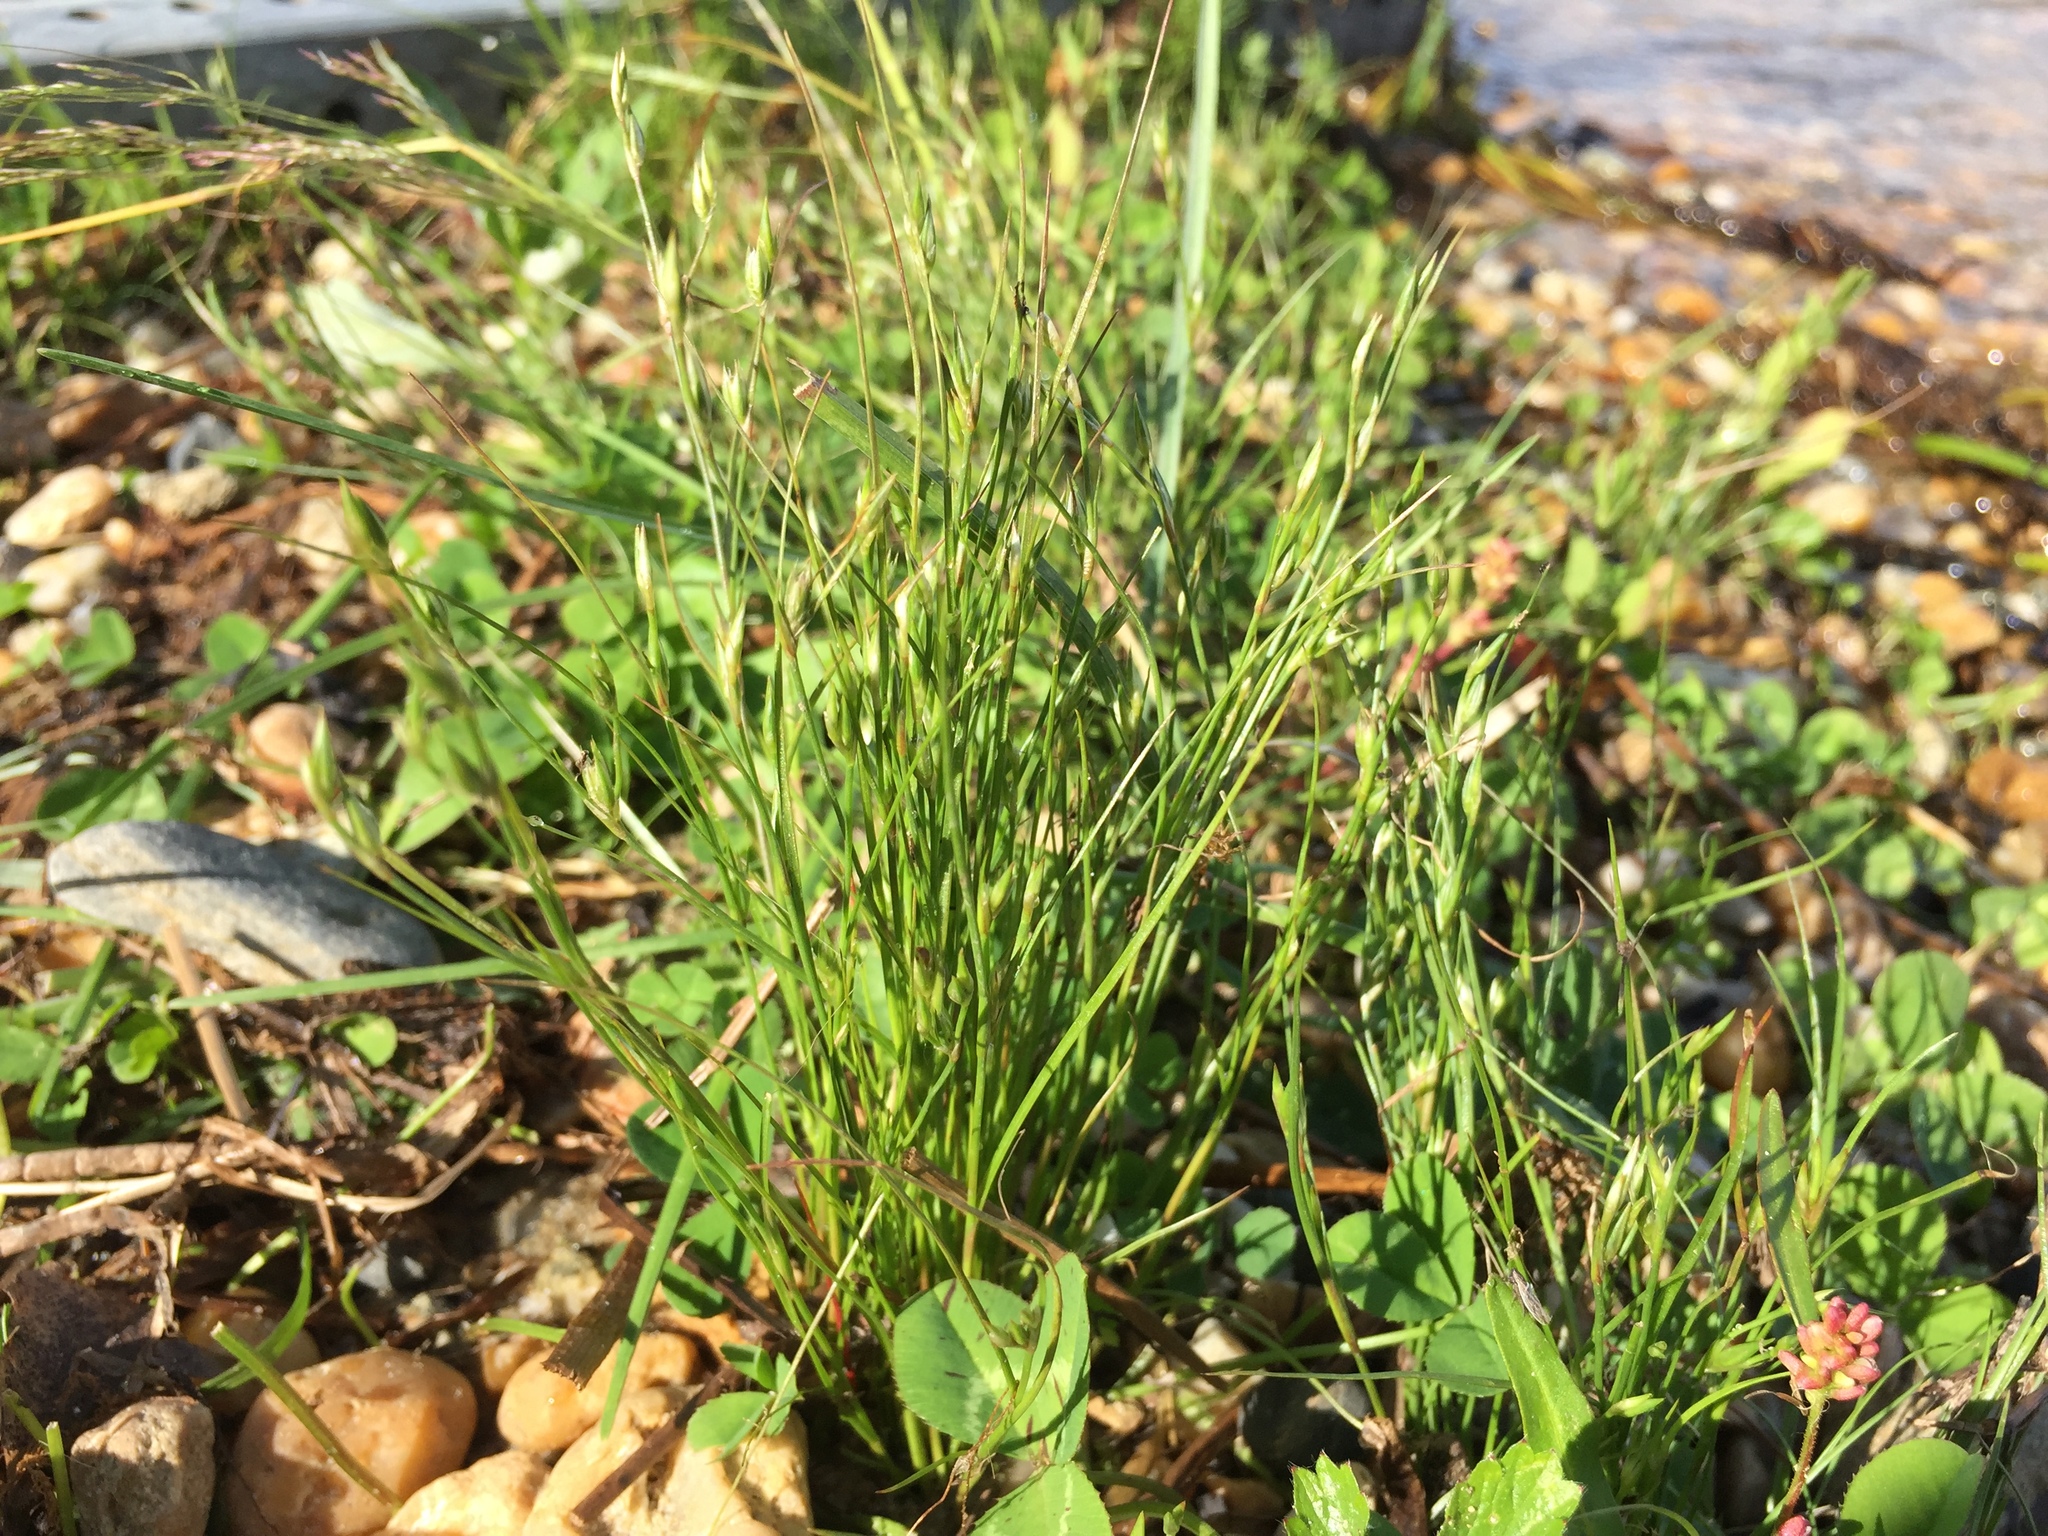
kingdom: Plantae
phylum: Tracheophyta
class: Liliopsida
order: Poales
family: Juncaceae
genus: Juncus
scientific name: Juncus bufonius
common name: Toad rush
